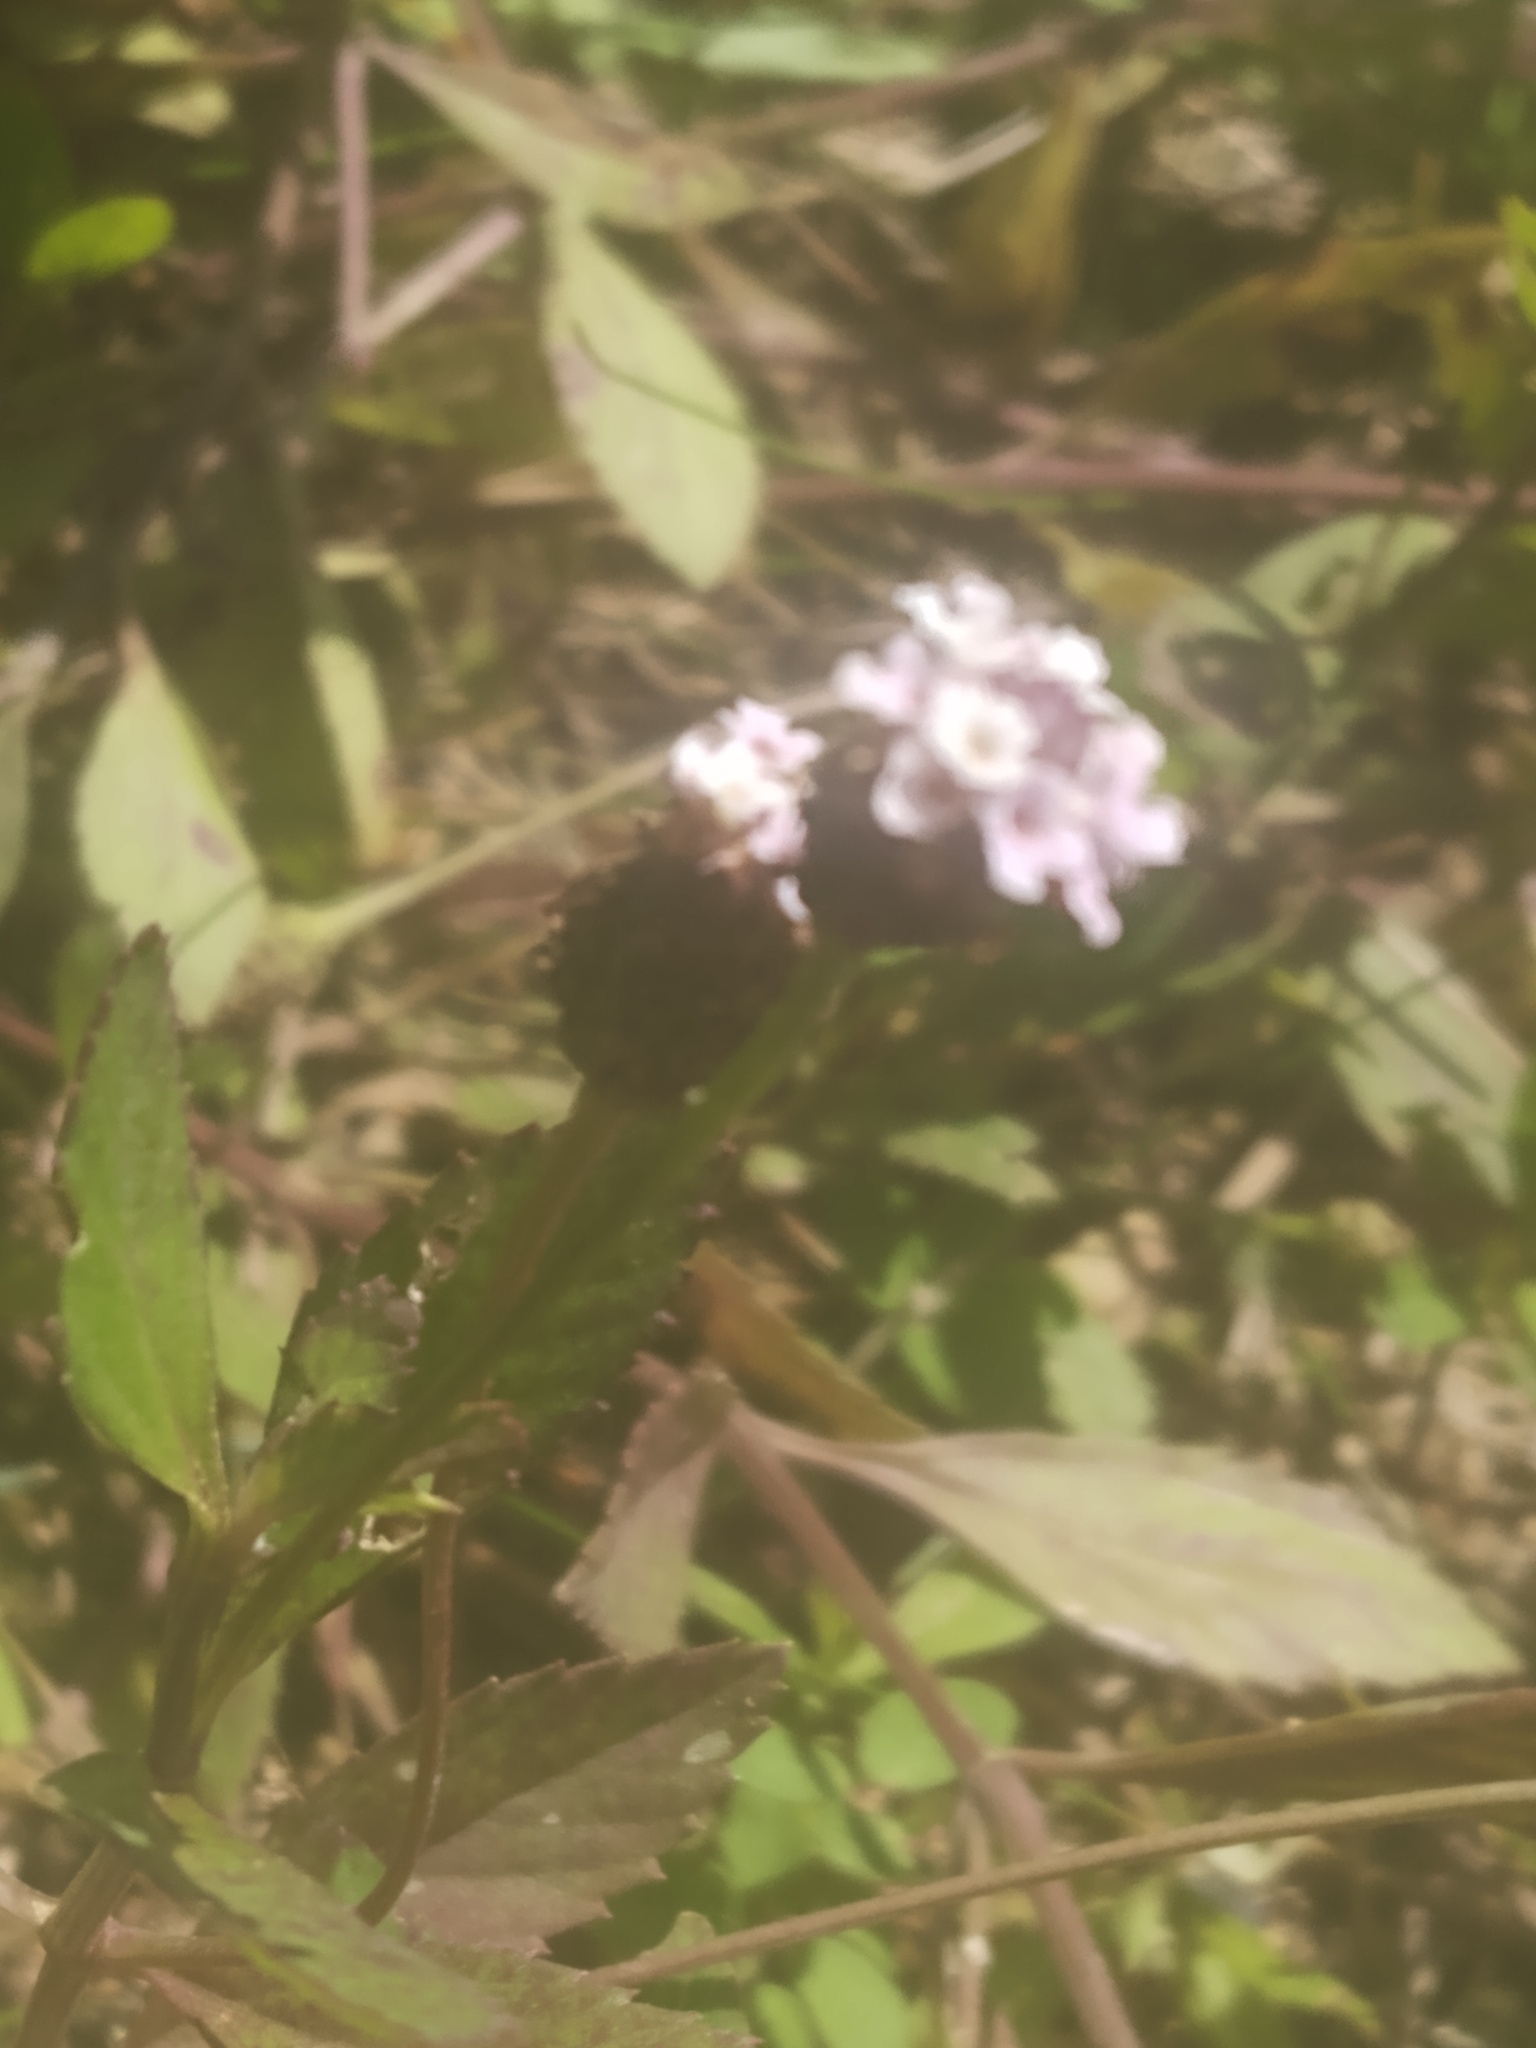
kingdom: Plantae
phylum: Tracheophyta
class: Magnoliopsida
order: Lamiales
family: Verbenaceae
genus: Phyla
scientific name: Phyla lanceolata
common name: Northern fogfruit
